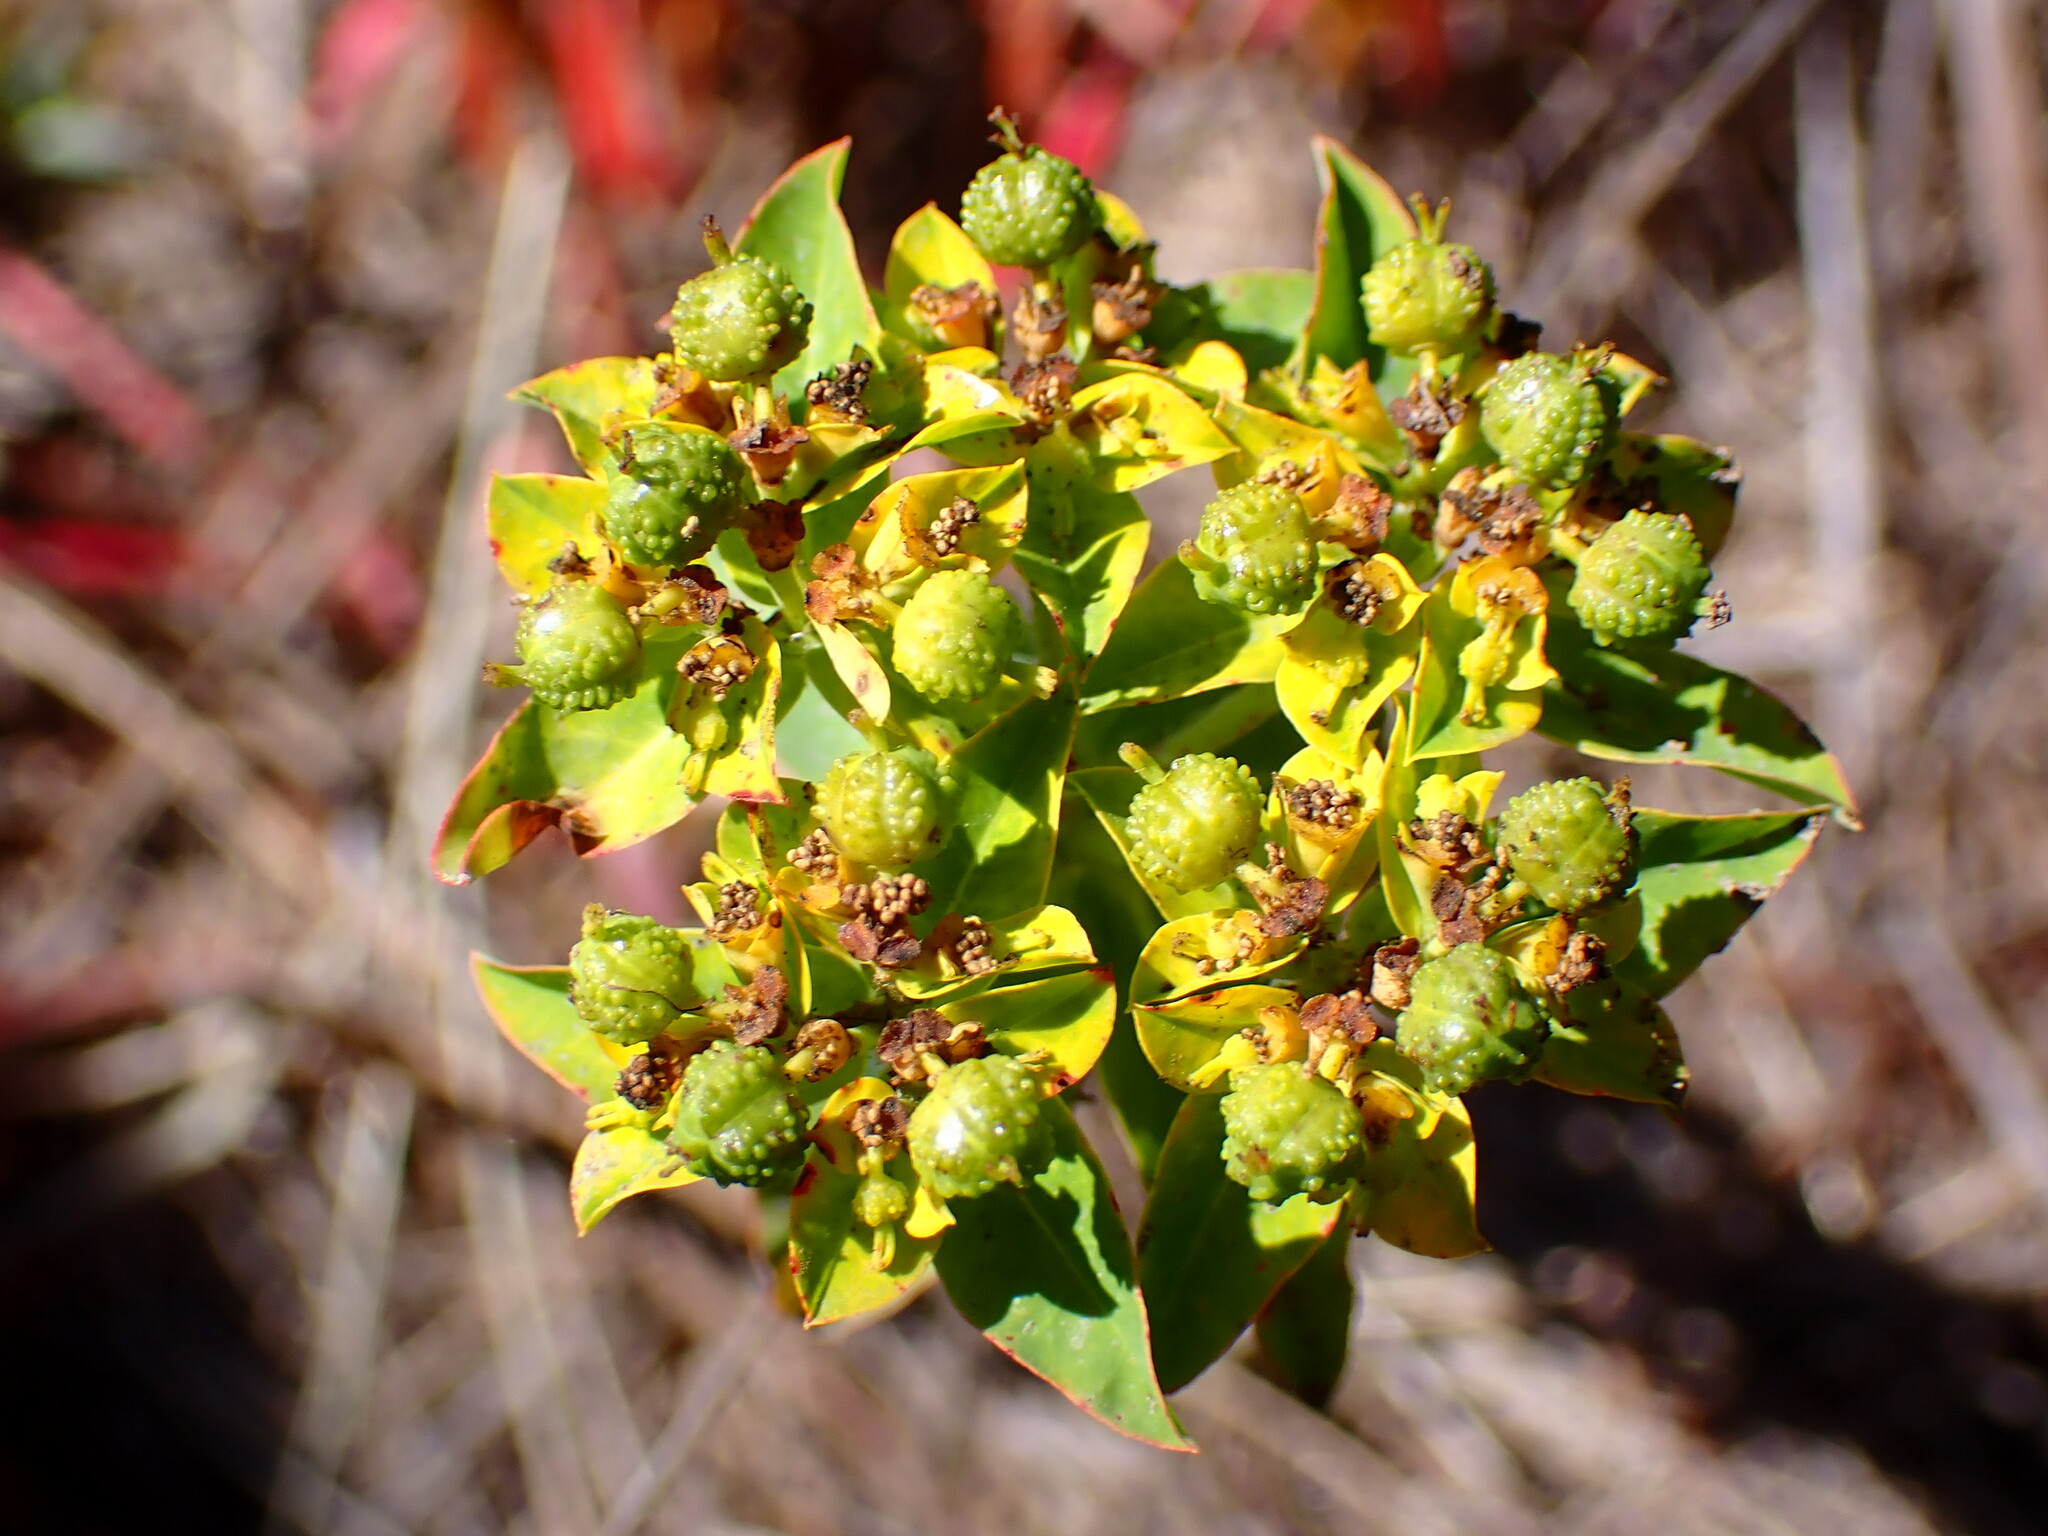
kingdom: Plantae
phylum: Tracheophyta
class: Magnoliopsida
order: Malpighiales
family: Euphorbiaceae
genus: Euphorbia
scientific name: Euphorbia oblongata
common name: Balkan spurge
